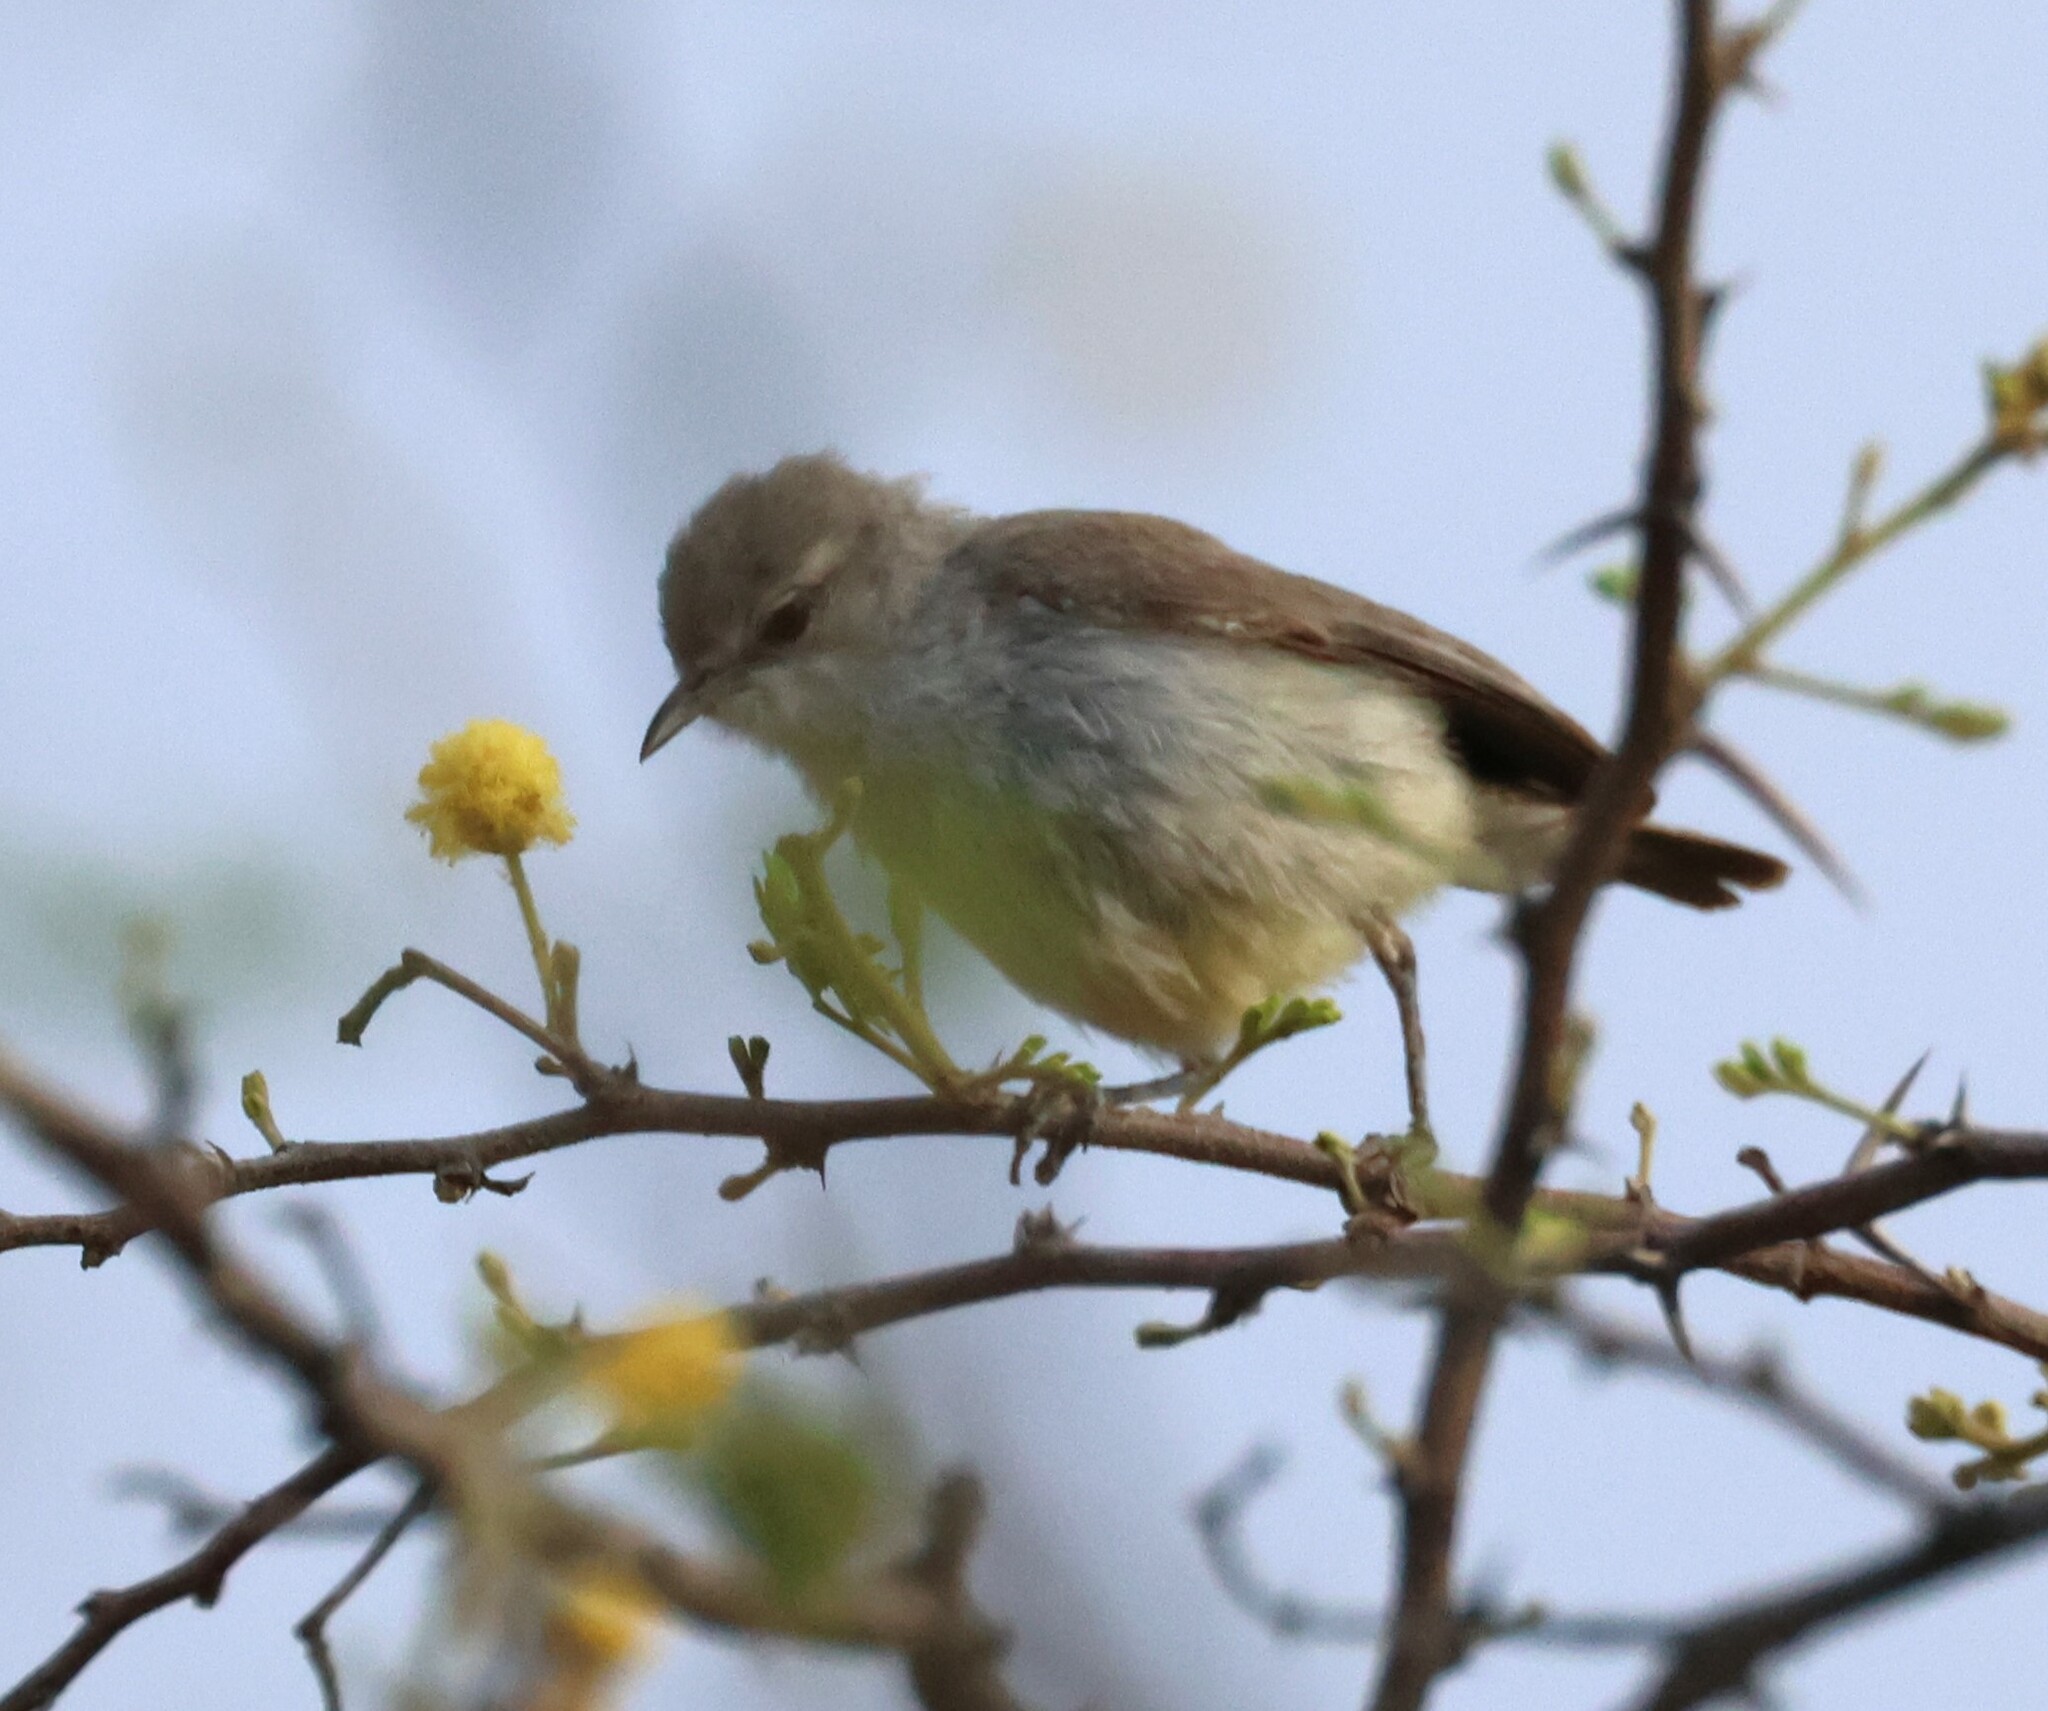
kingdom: Animalia
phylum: Chordata
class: Aves
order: Passeriformes
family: Cisticolidae
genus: Eremomela
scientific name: Eremomela icteropygialis
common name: Yellow-bellied eremomela
